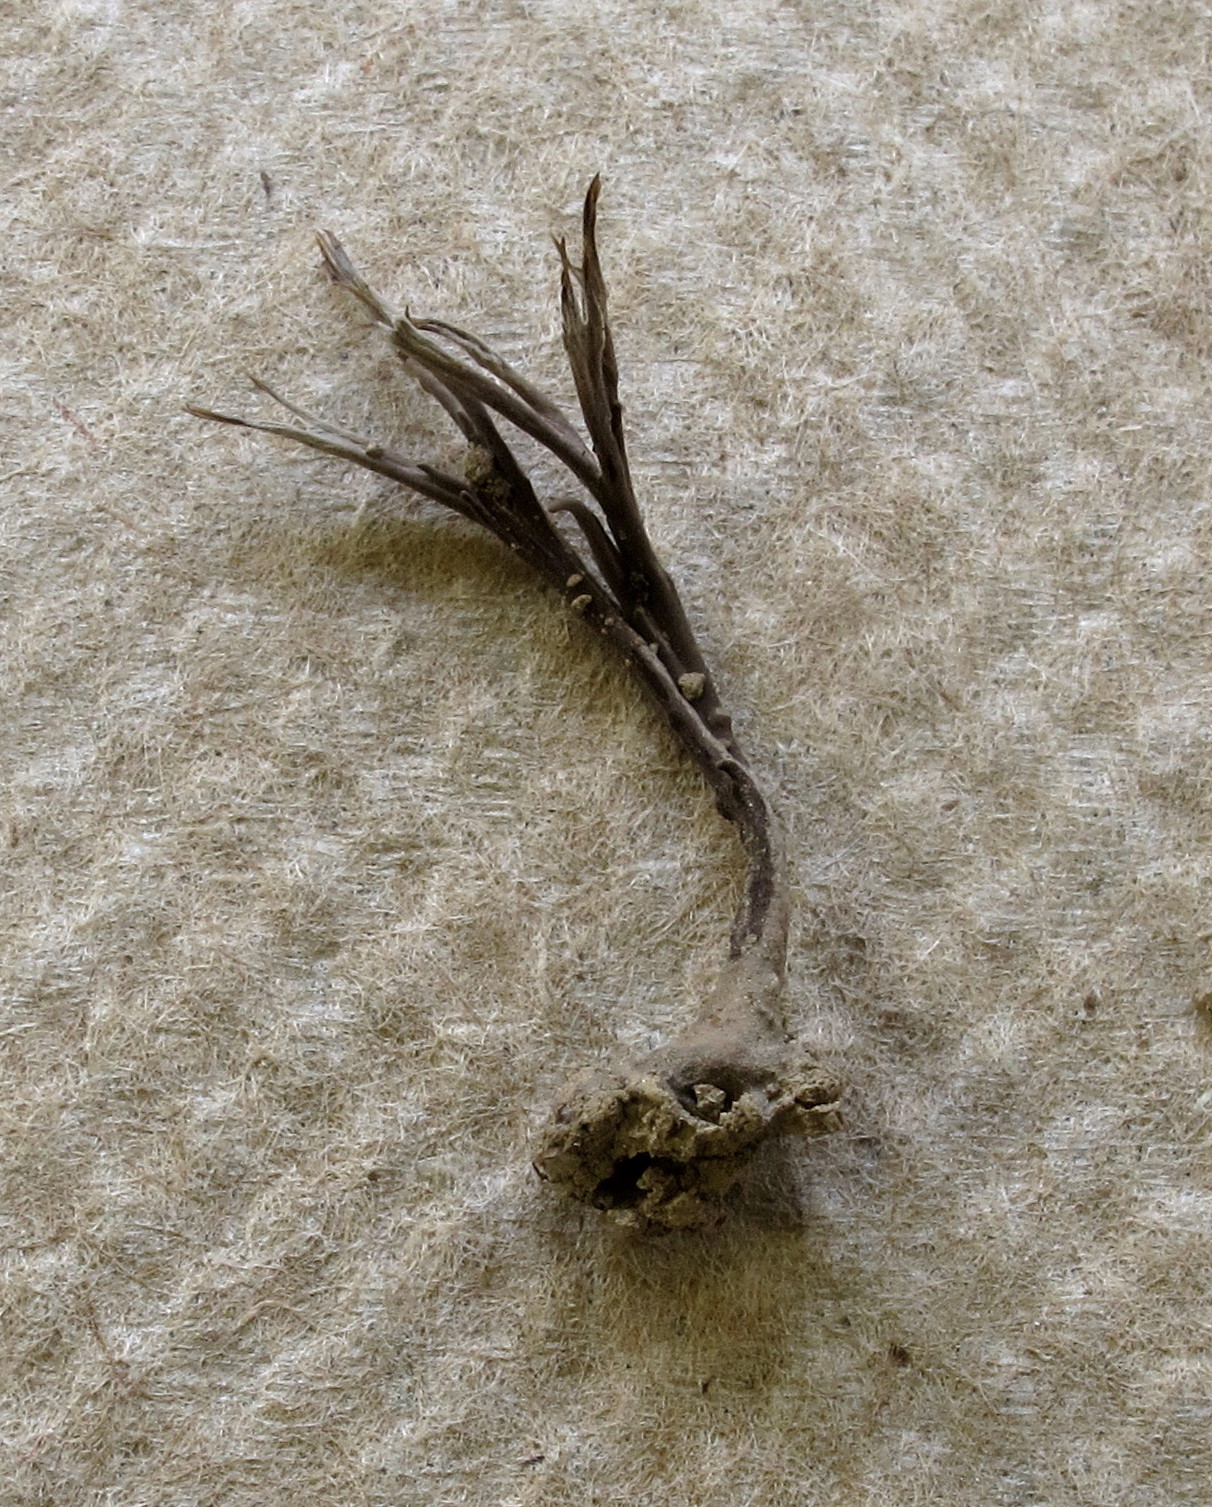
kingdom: Fungi
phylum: Ascomycota
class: Sordariomycetes
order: Xylariales
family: Xylariaceae
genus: Xylaria
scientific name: Xylaria tentaculata
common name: Fairy sparklers
